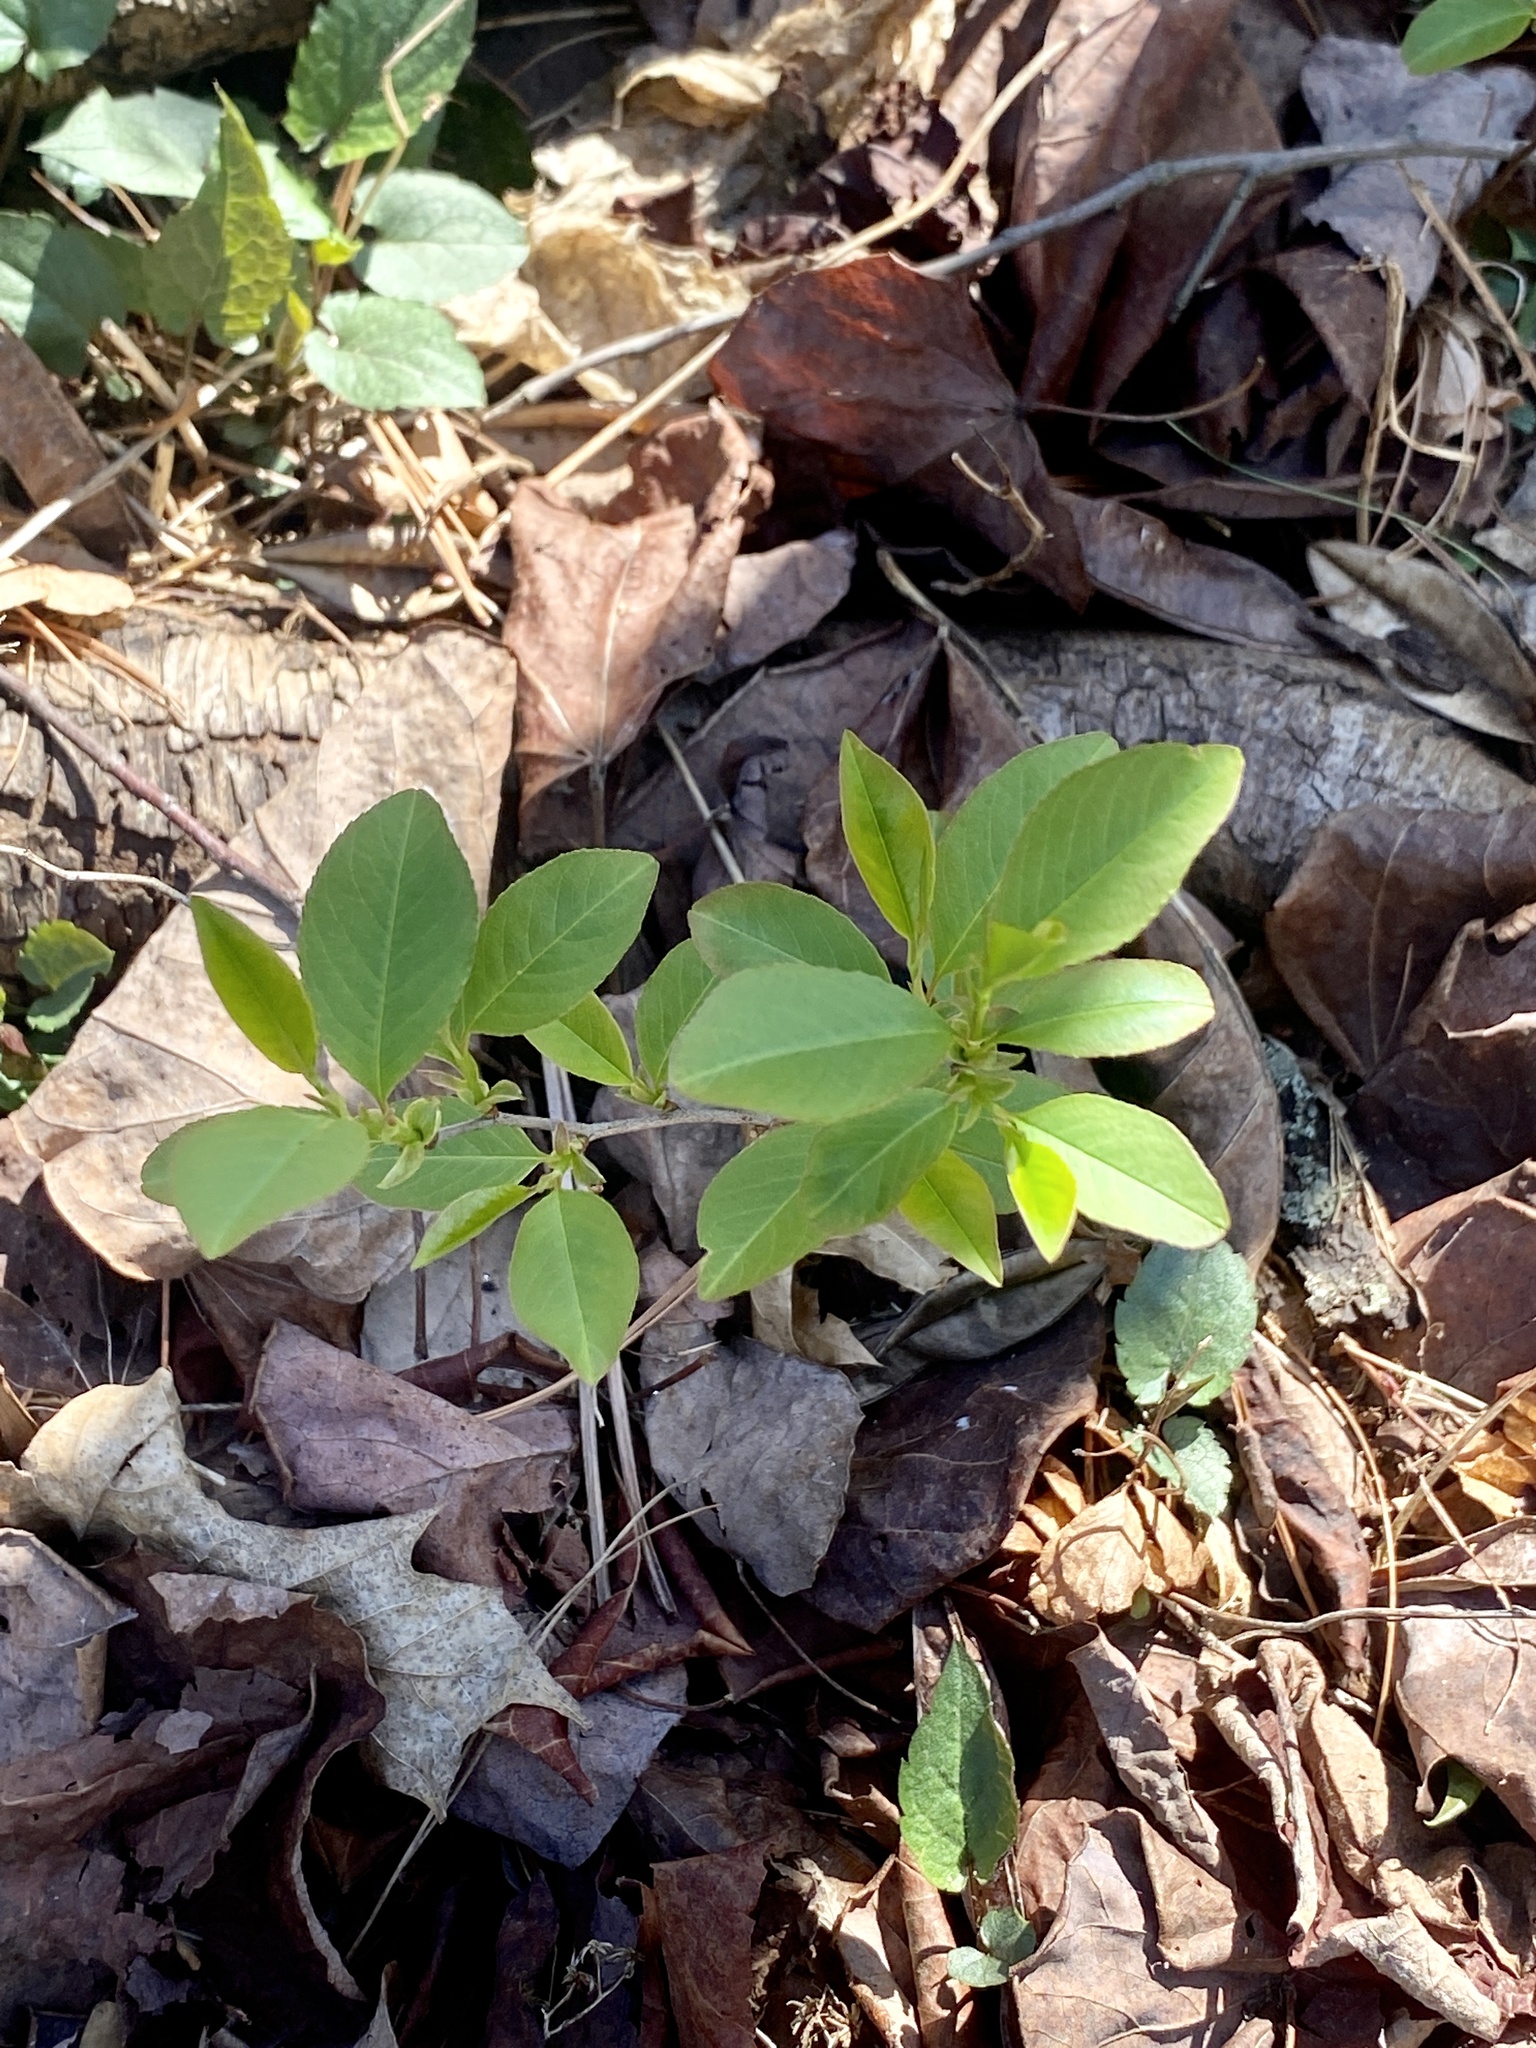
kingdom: Plantae
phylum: Tracheophyta
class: Magnoliopsida
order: Rosales
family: Rosaceae
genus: Prunus
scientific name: Prunus serotina
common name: Black cherry
